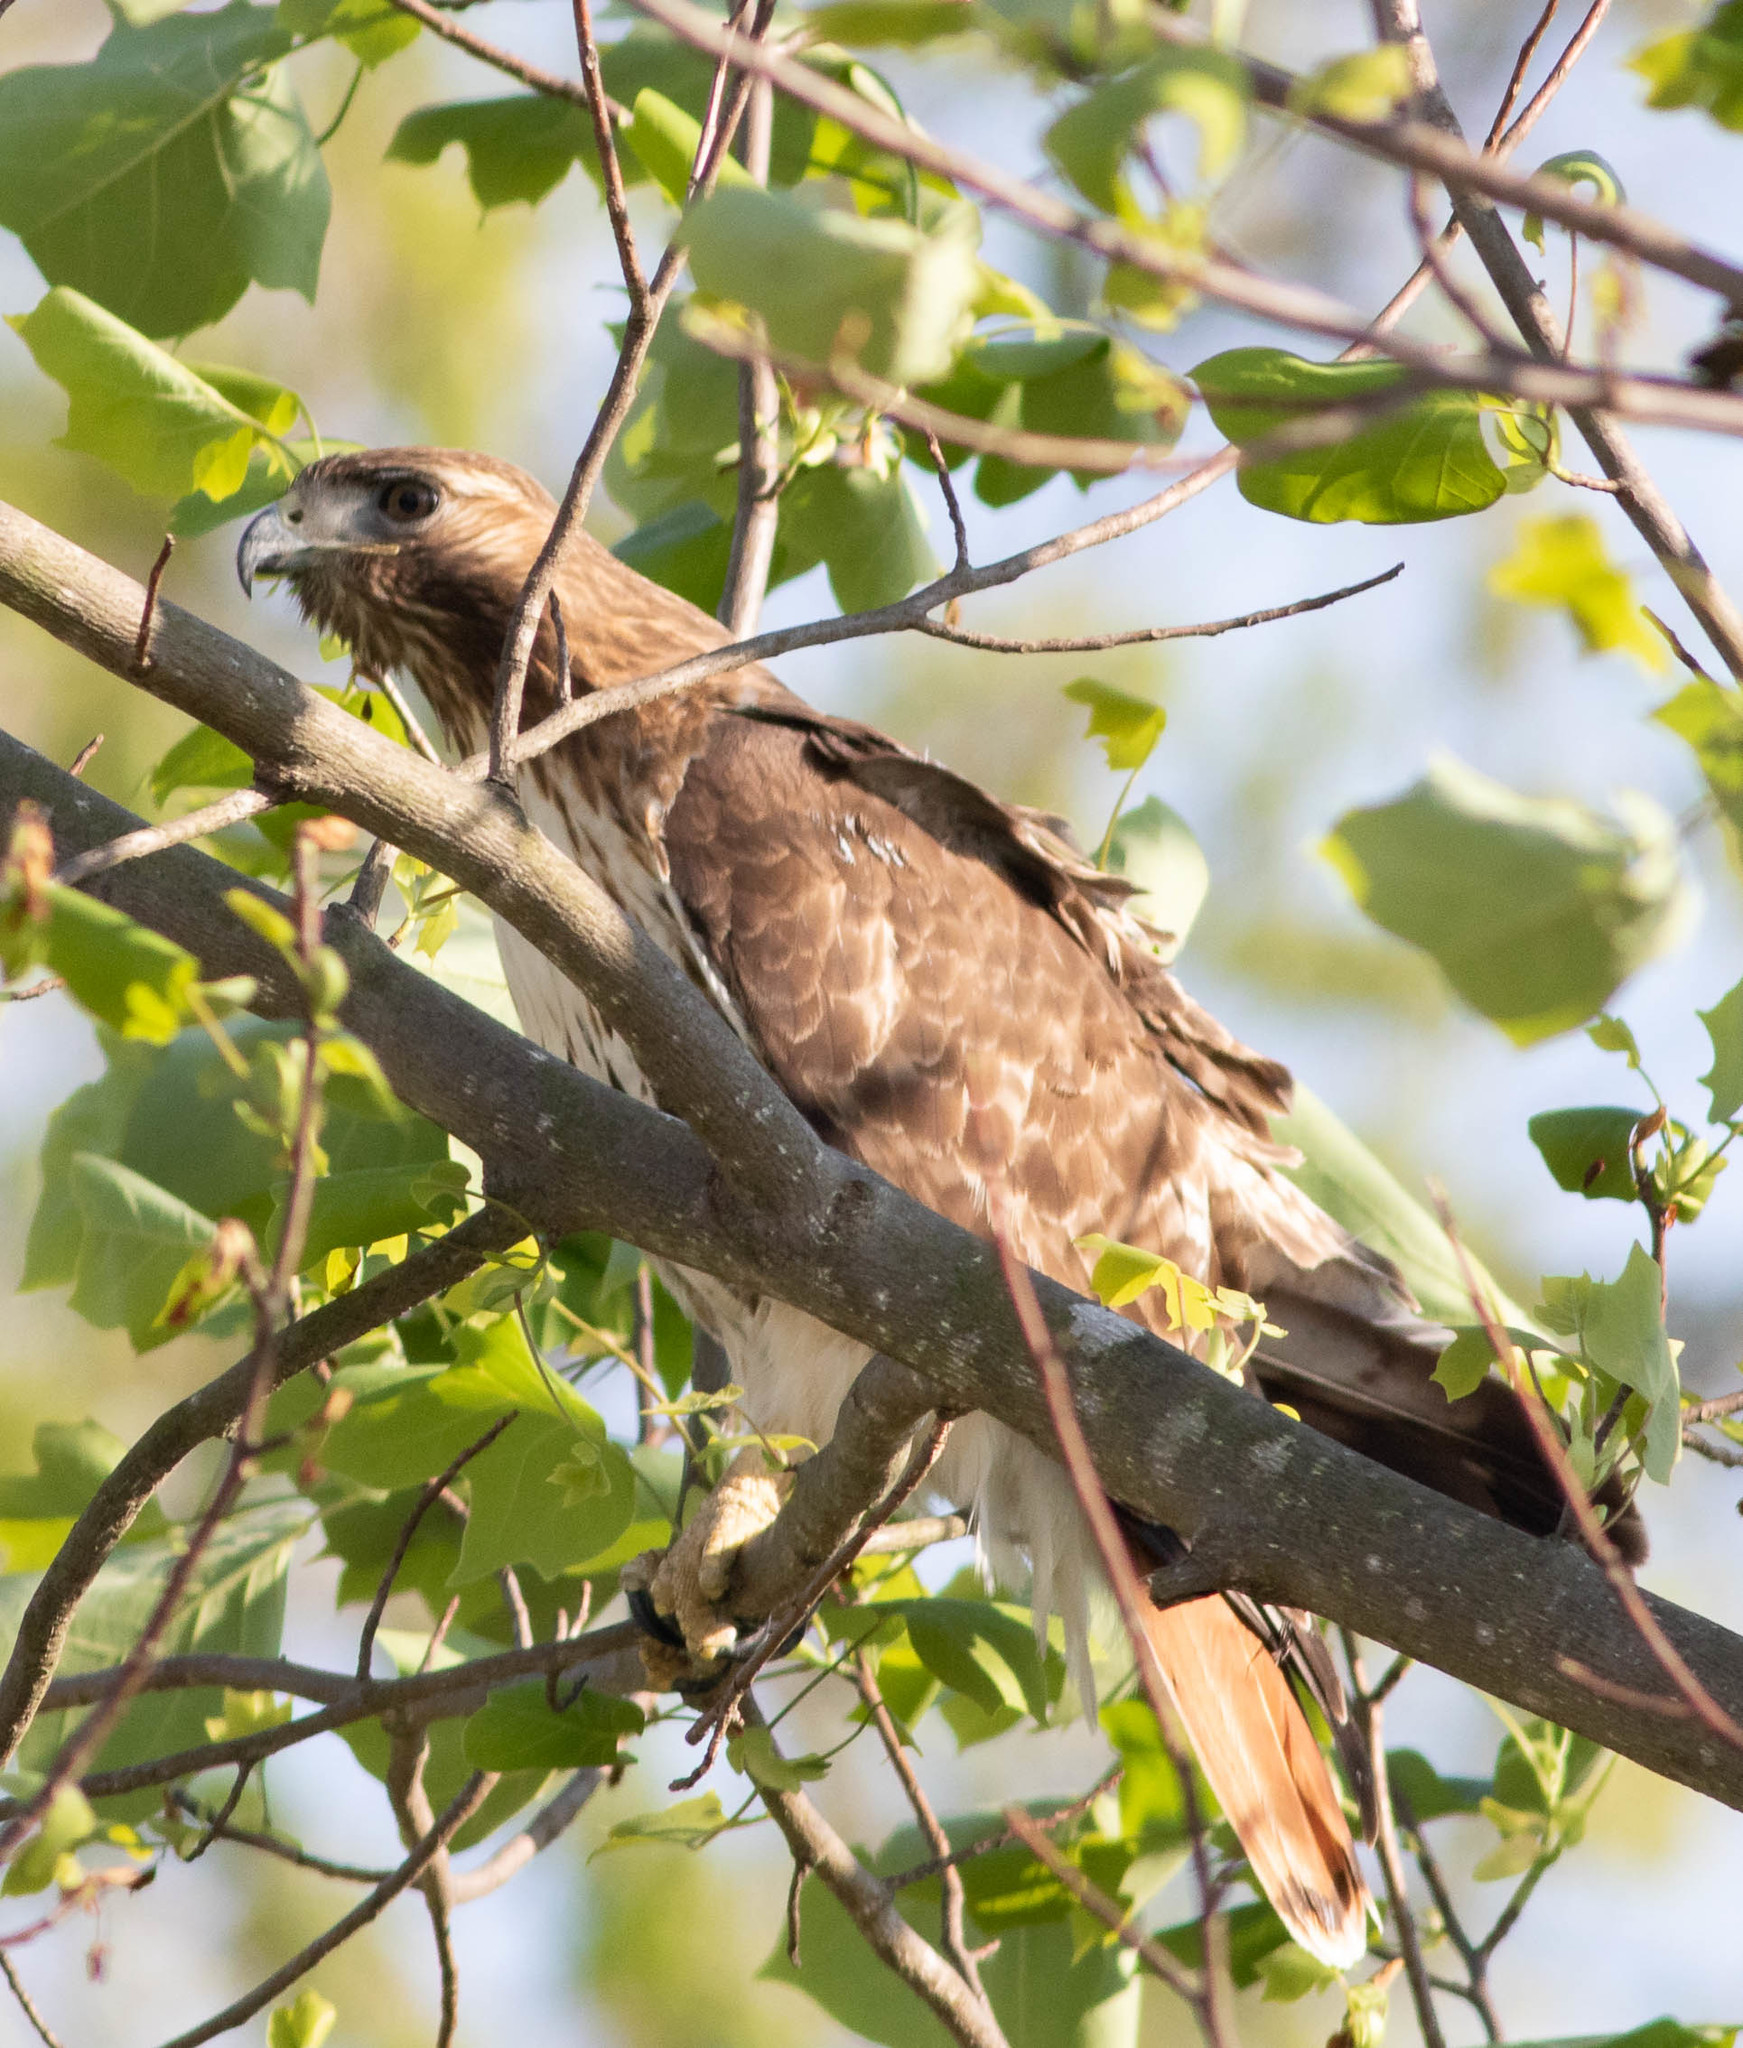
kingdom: Animalia
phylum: Chordata
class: Aves
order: Accipitriformes
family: Accipitridae
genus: Buteo
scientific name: Buteo jamaicensis
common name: Red-tailed hawk
